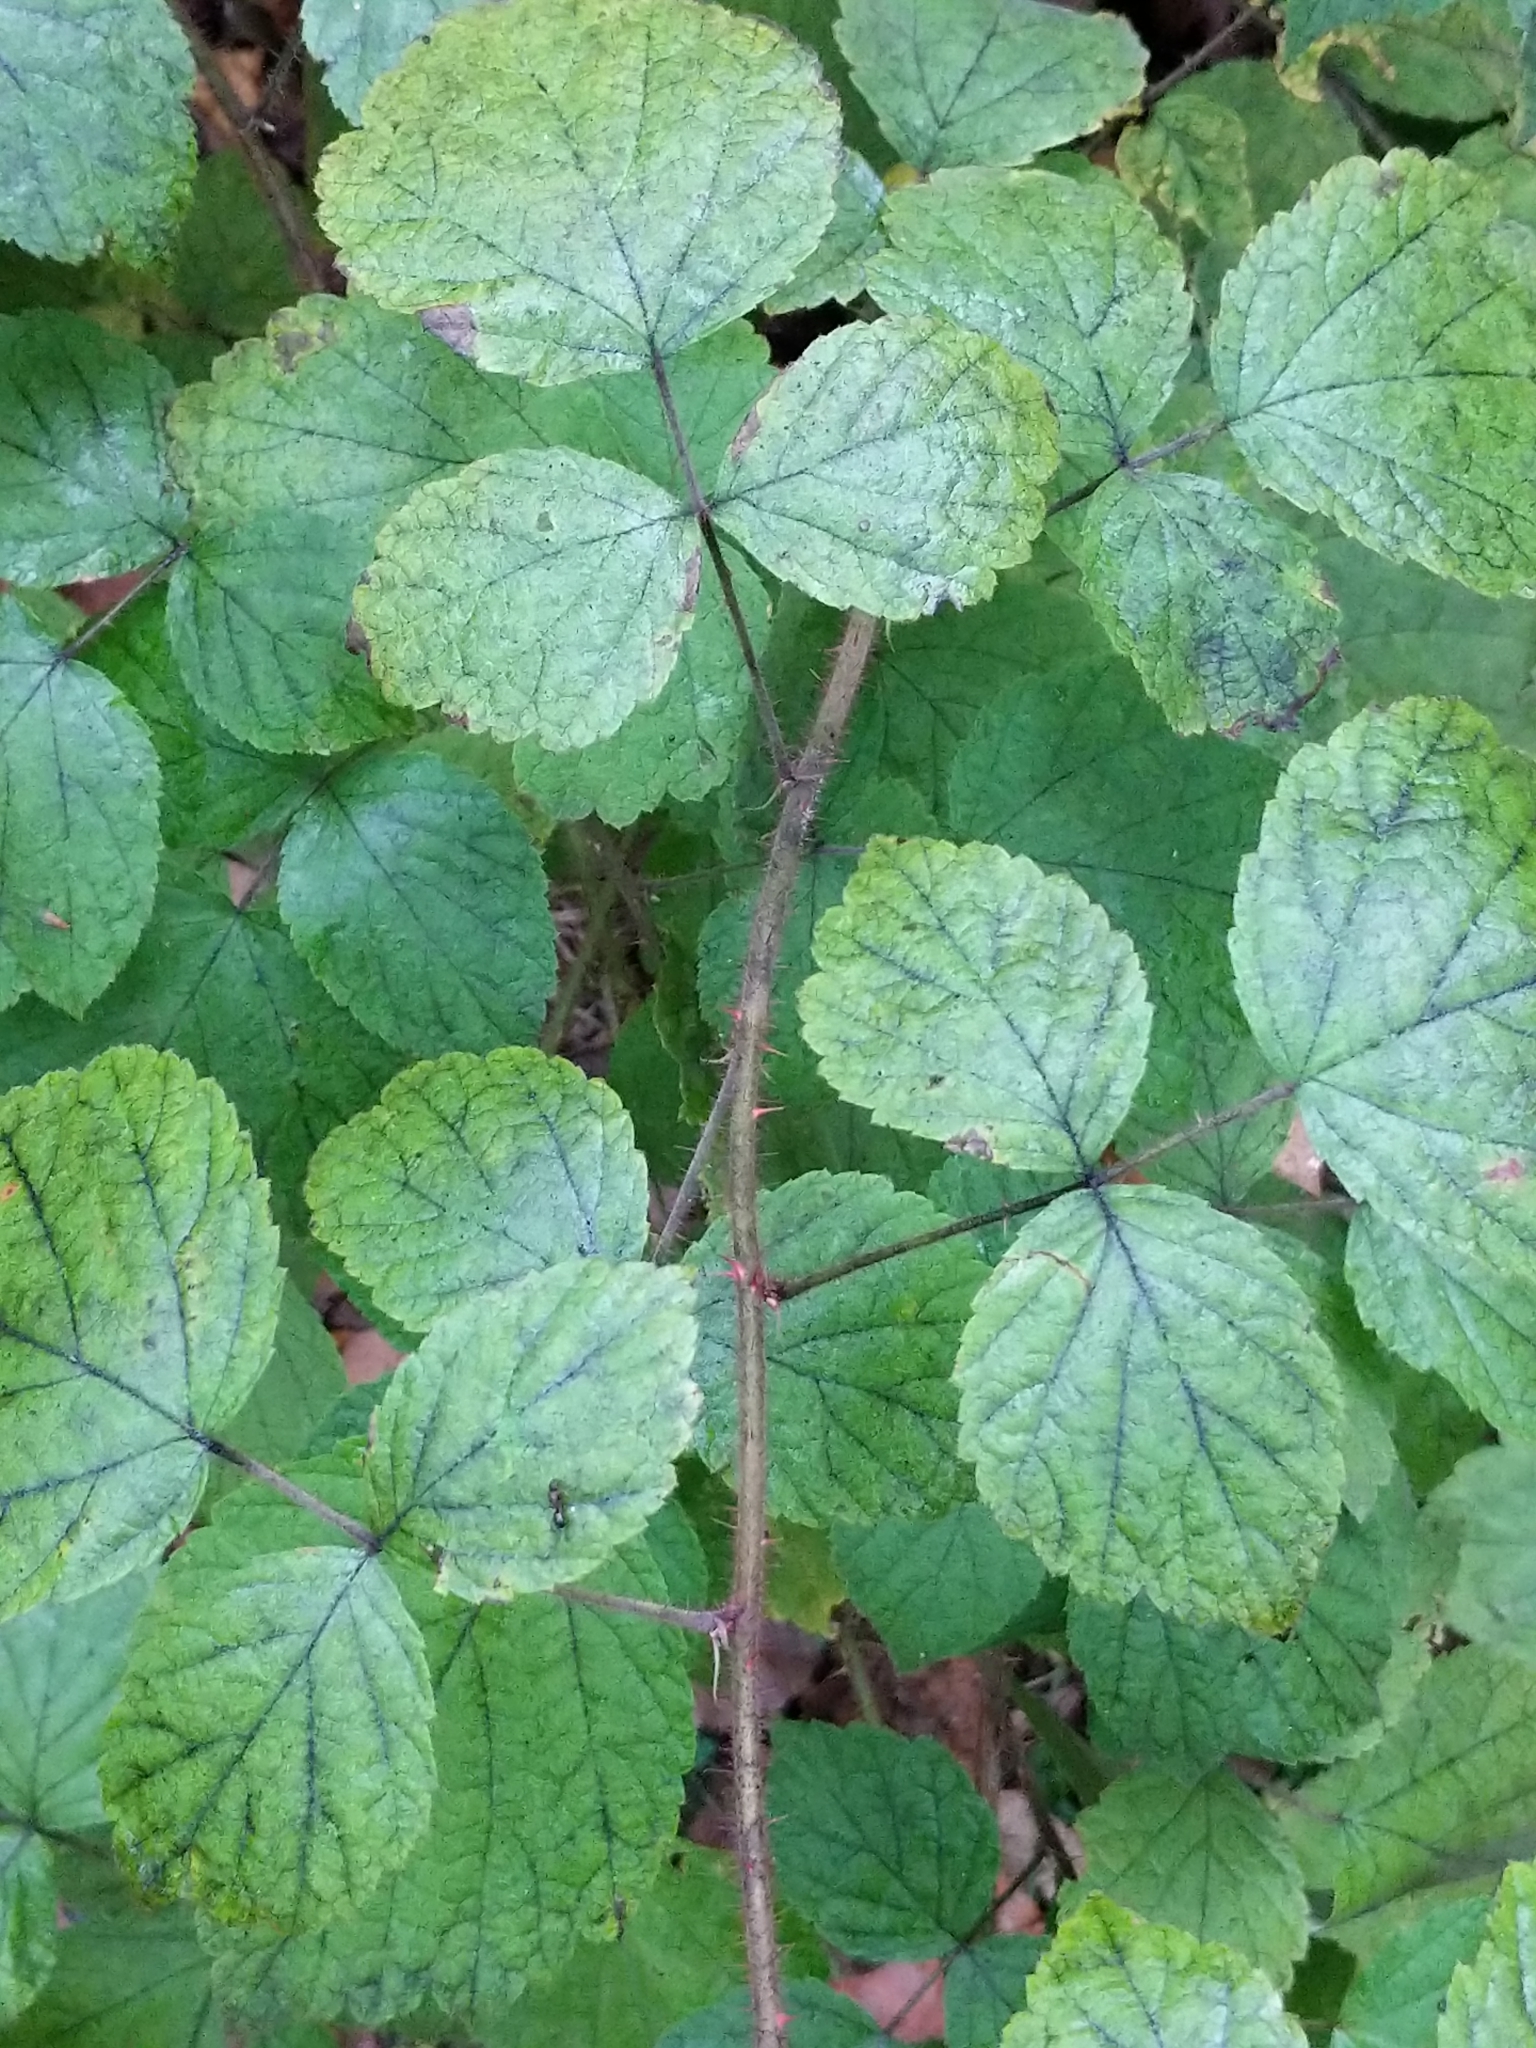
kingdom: Plantae
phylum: Tracheophyta
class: Magnoliopsida
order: Rosales
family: Rosaceae
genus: Rubus
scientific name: Rubus phoenicolasius
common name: Japanese wineberry
